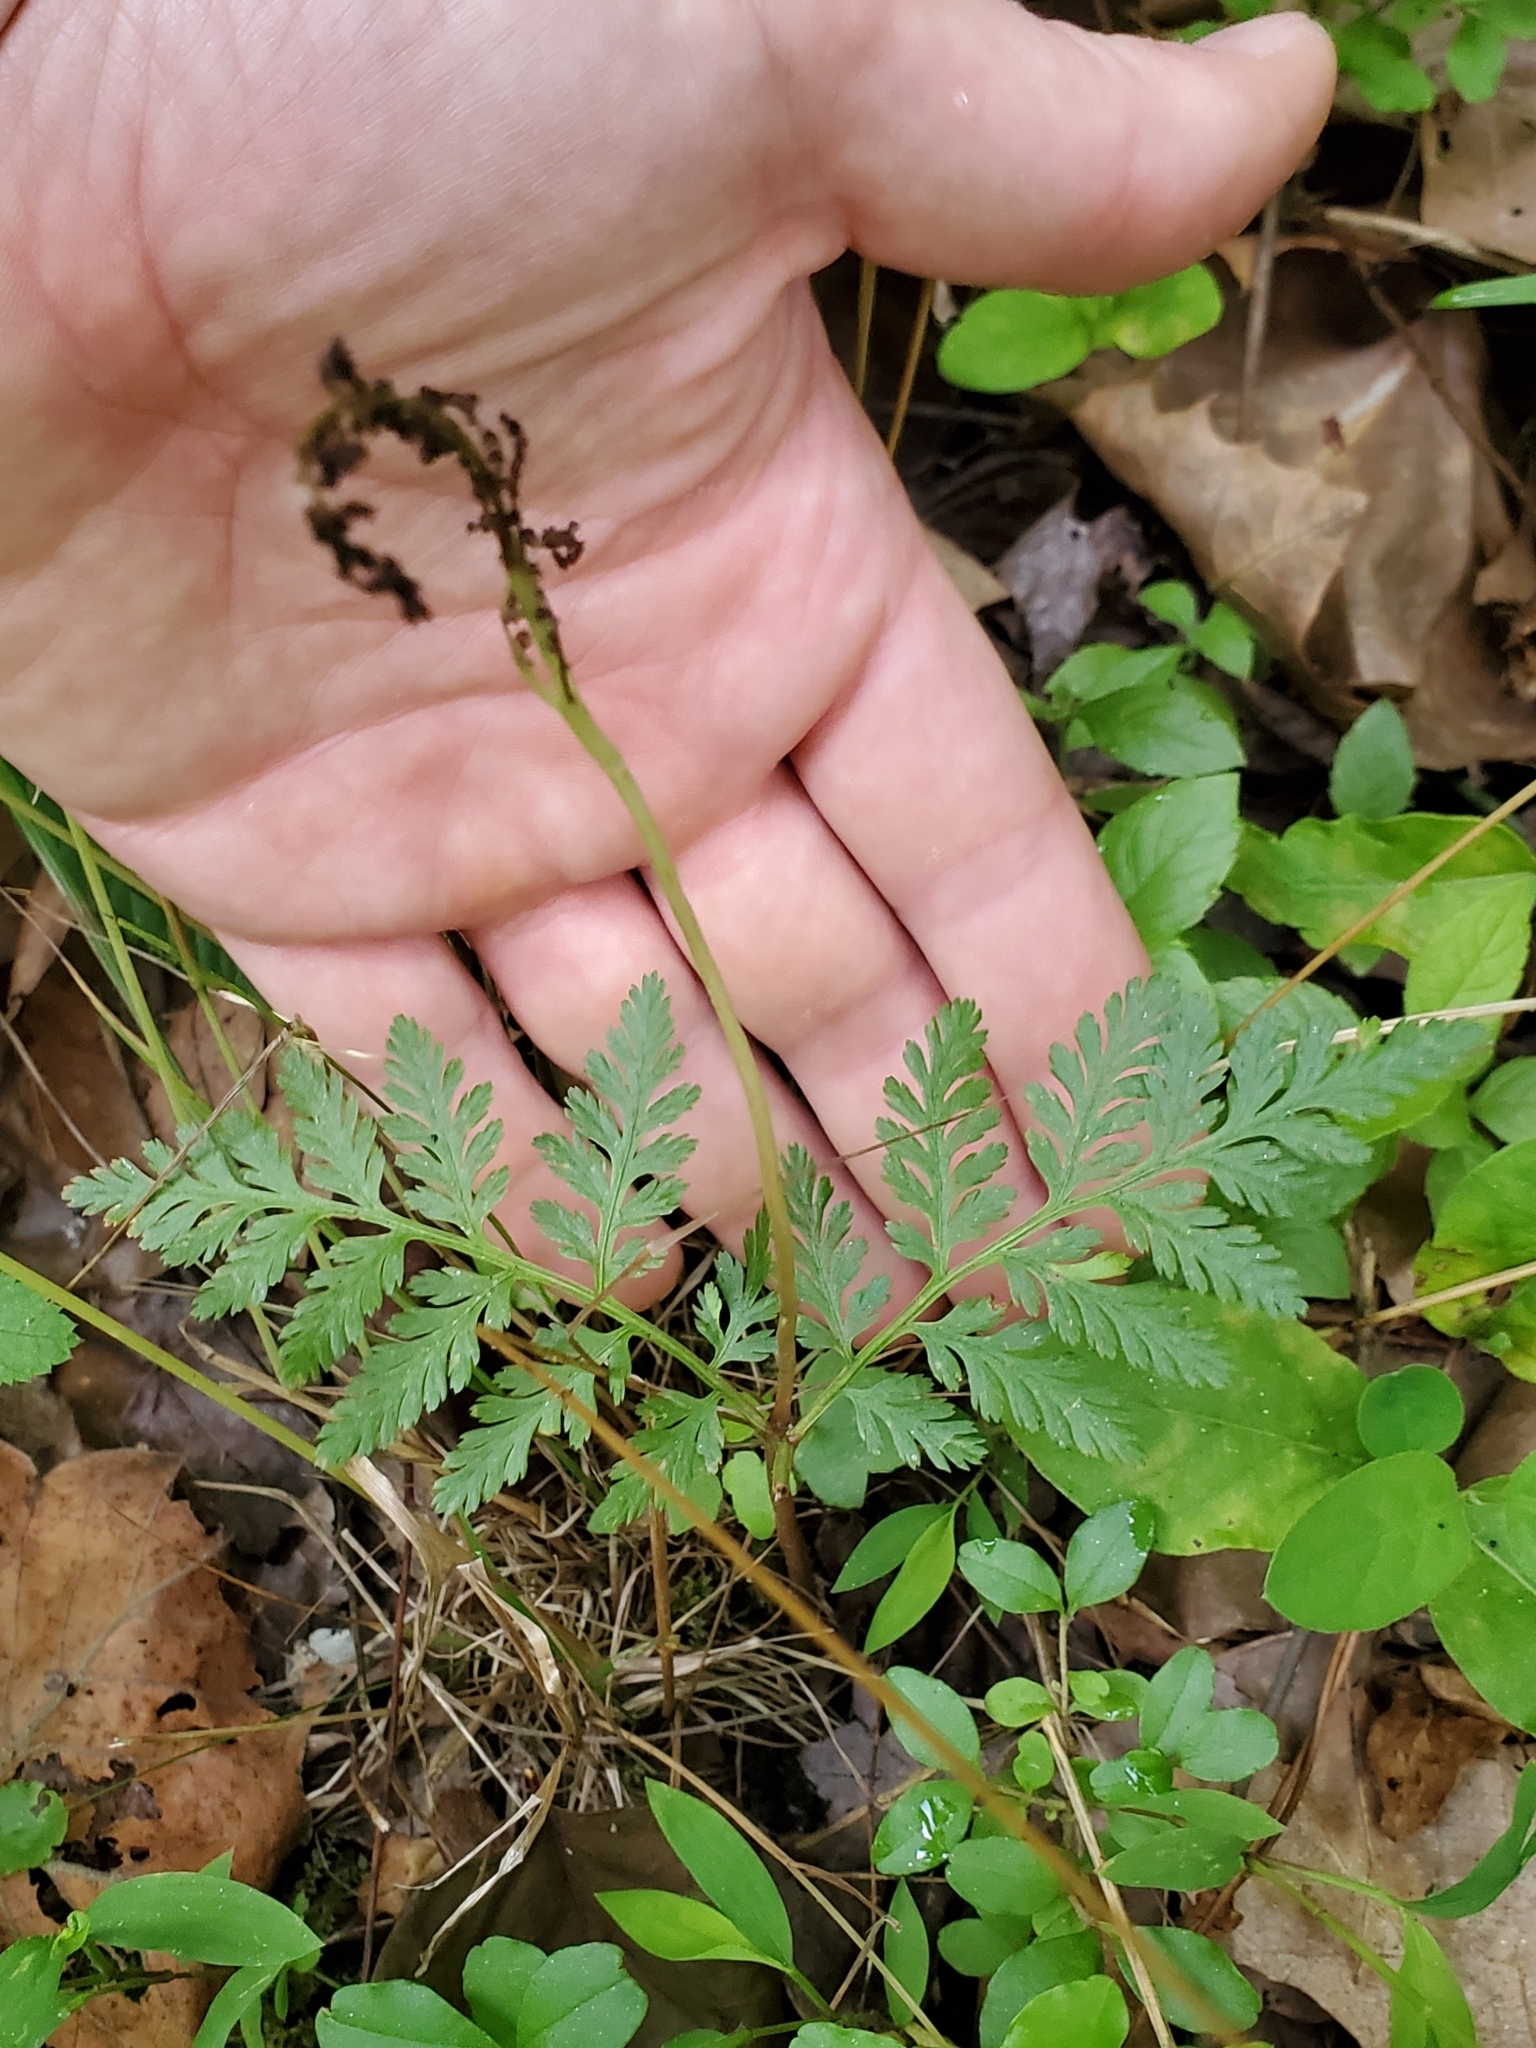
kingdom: Plantae
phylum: Tracheophyta
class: Polypodiopsida
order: Ophioglossales
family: Ophioglossaceae
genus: Botrypus
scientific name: Botrypus virginianus
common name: Common grapefern
